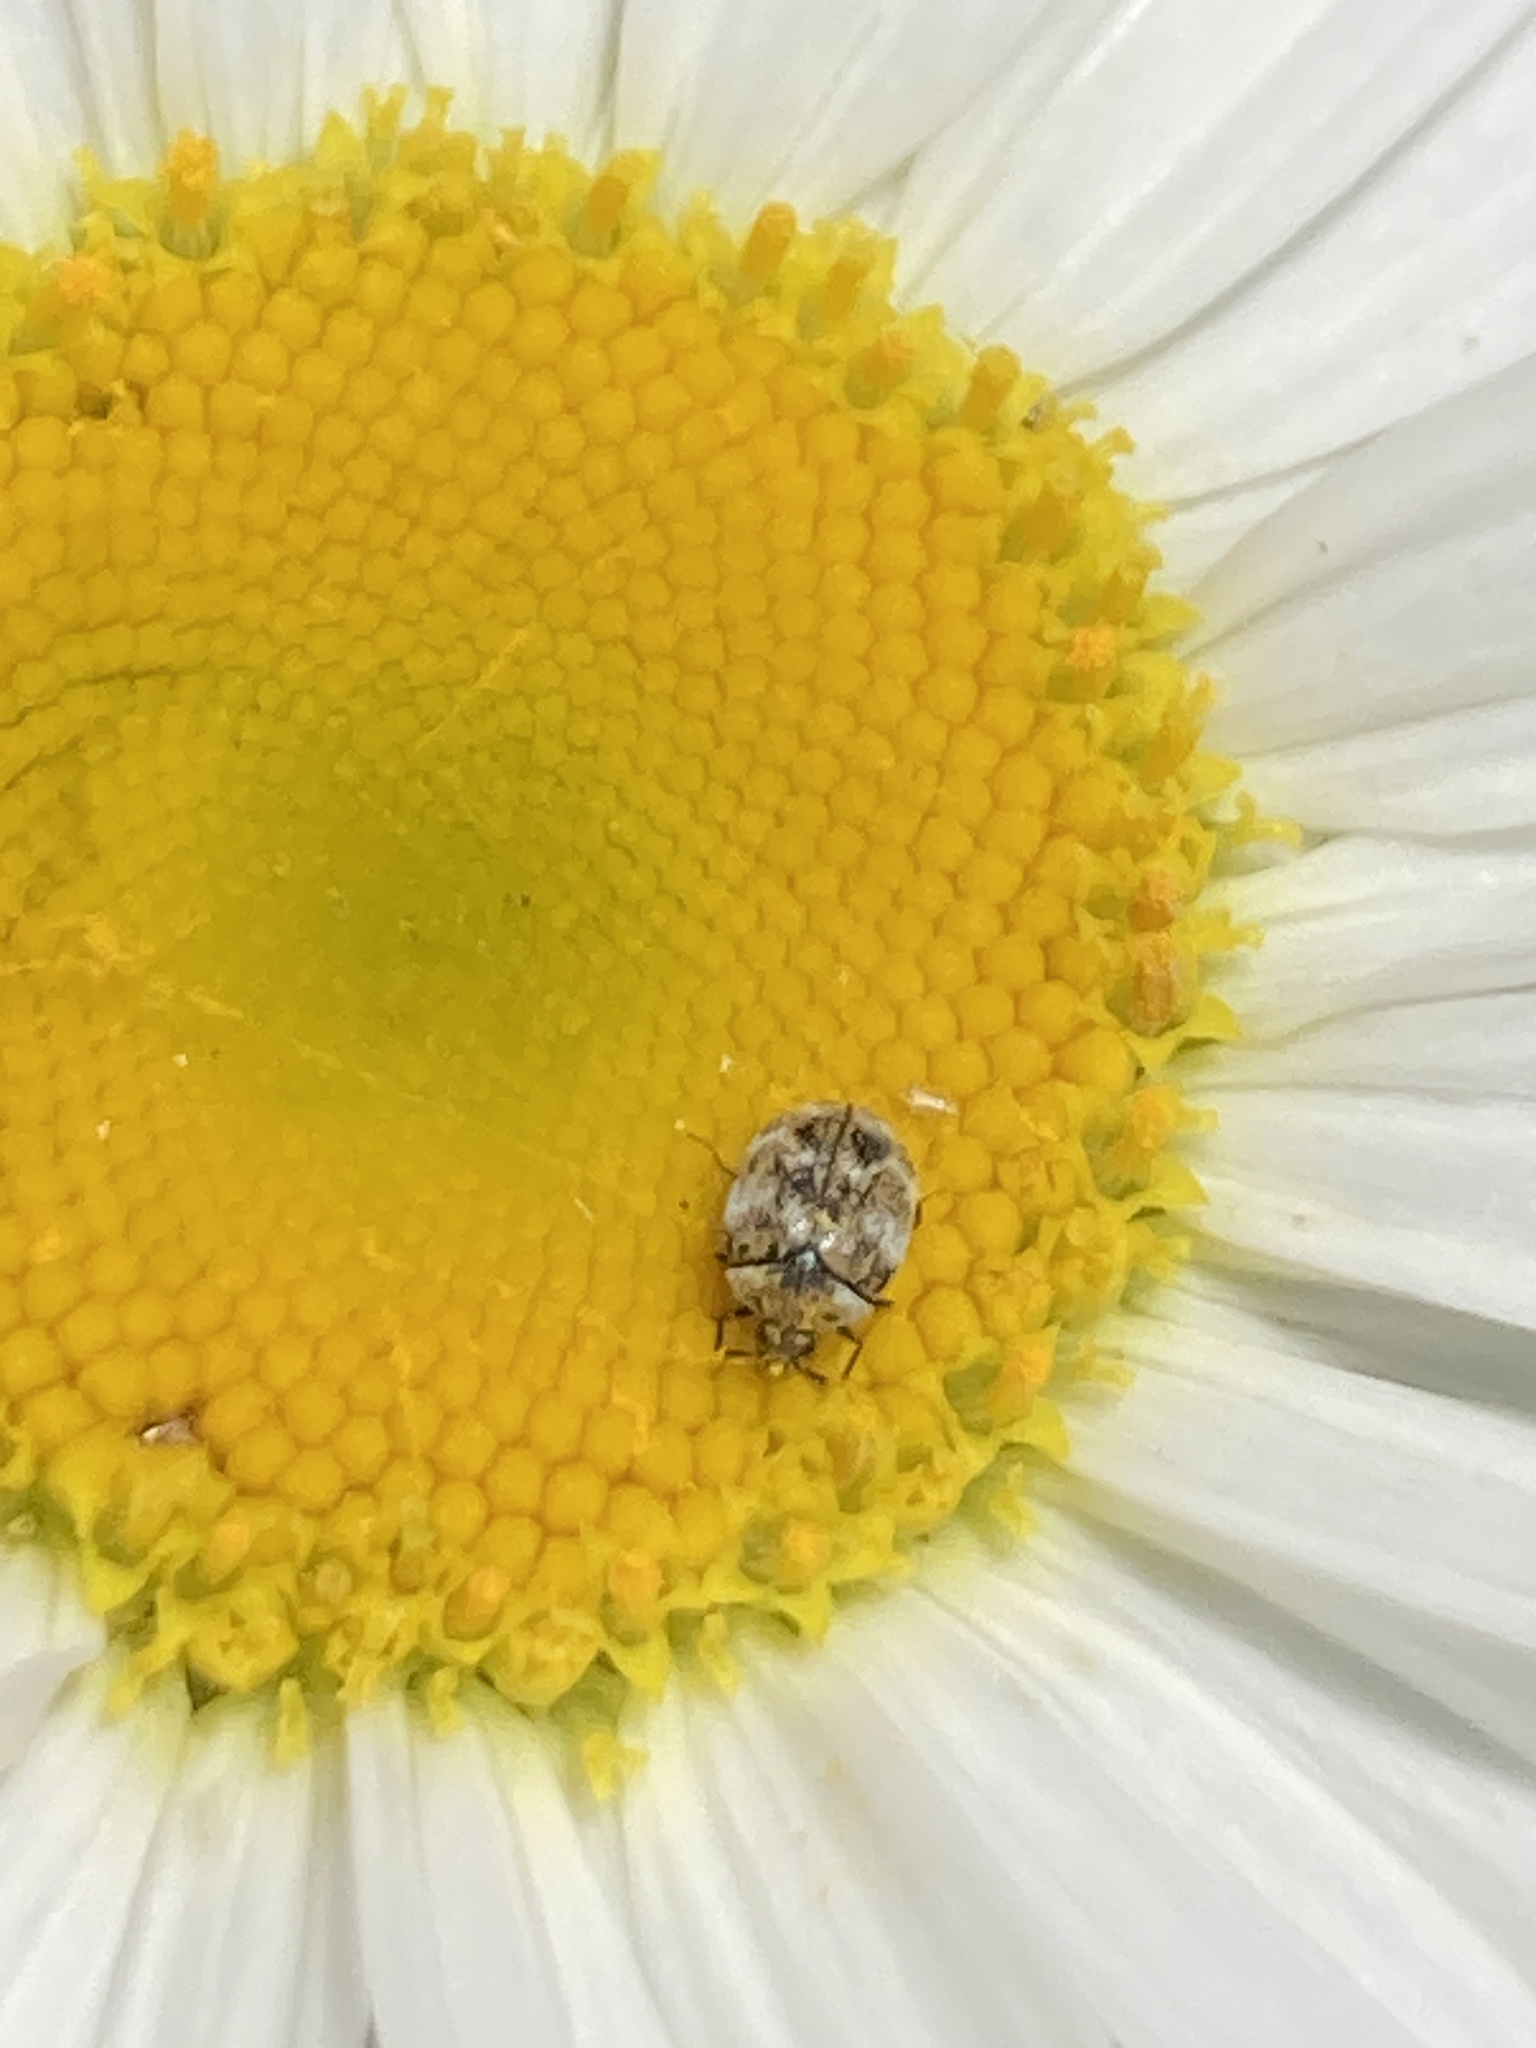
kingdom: Animalia
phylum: Arthropoda
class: Insecta
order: Coleoptera
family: Dermestidae
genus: Anthrenus
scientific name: Anthrenus verbasci
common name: Varied carpet beetle
